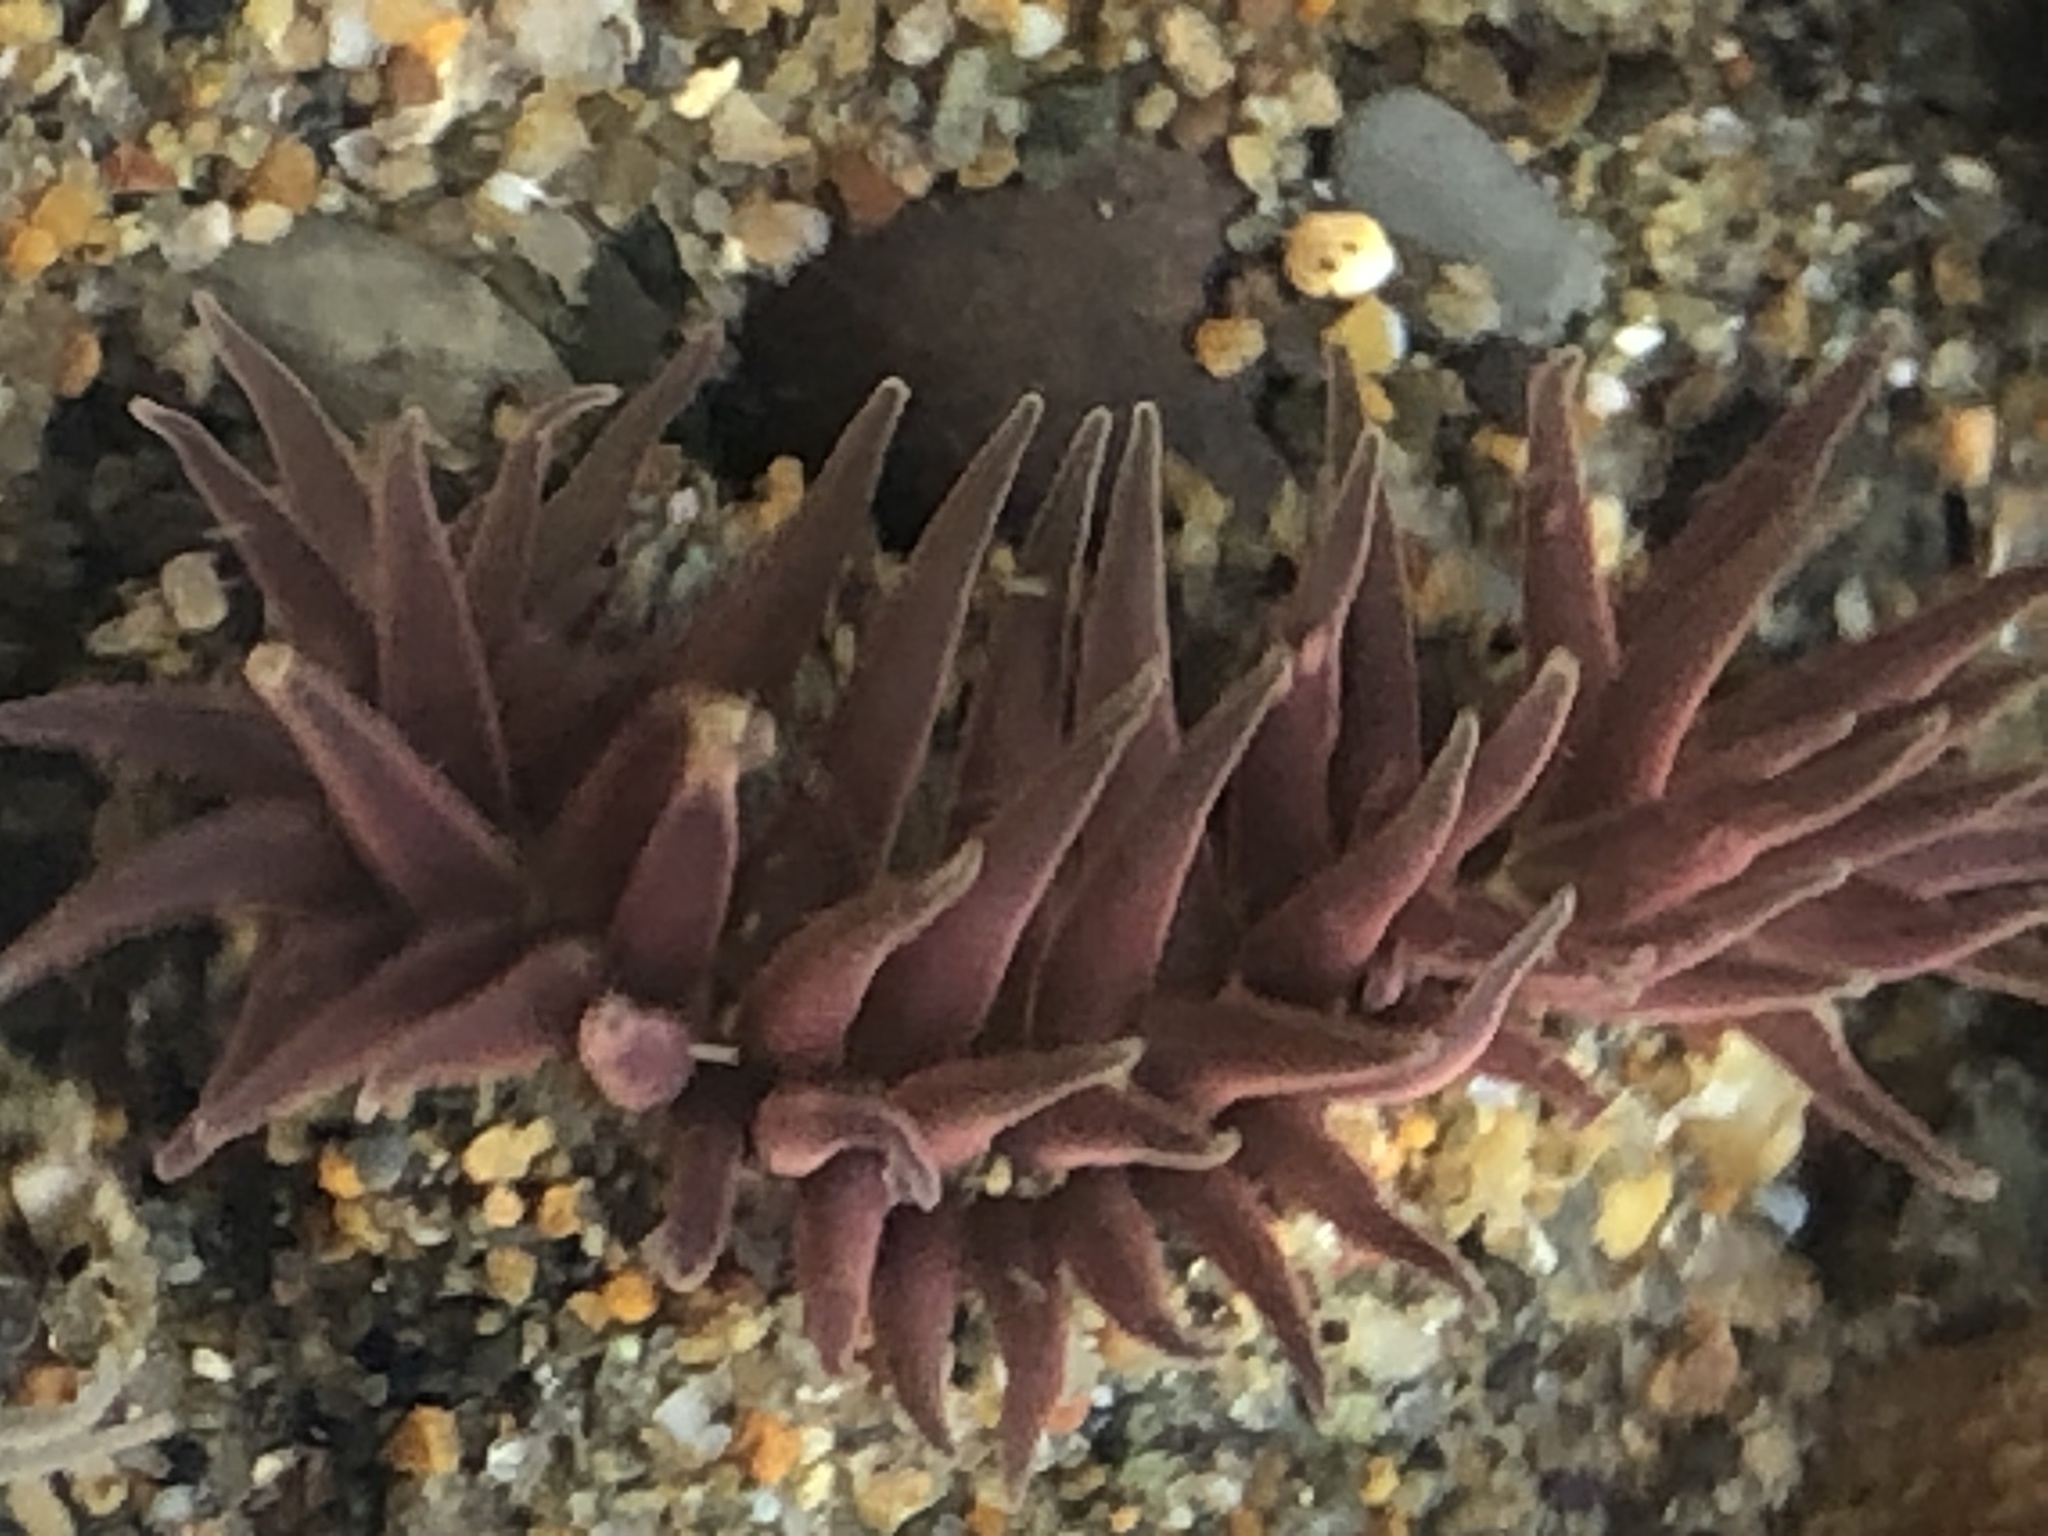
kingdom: Animalia
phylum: Cnidaria
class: Anthozoa
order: Actiniaria
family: Actiniidae
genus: Anthopleura
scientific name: Anthopleura artemisia
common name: Buried sea anemone
